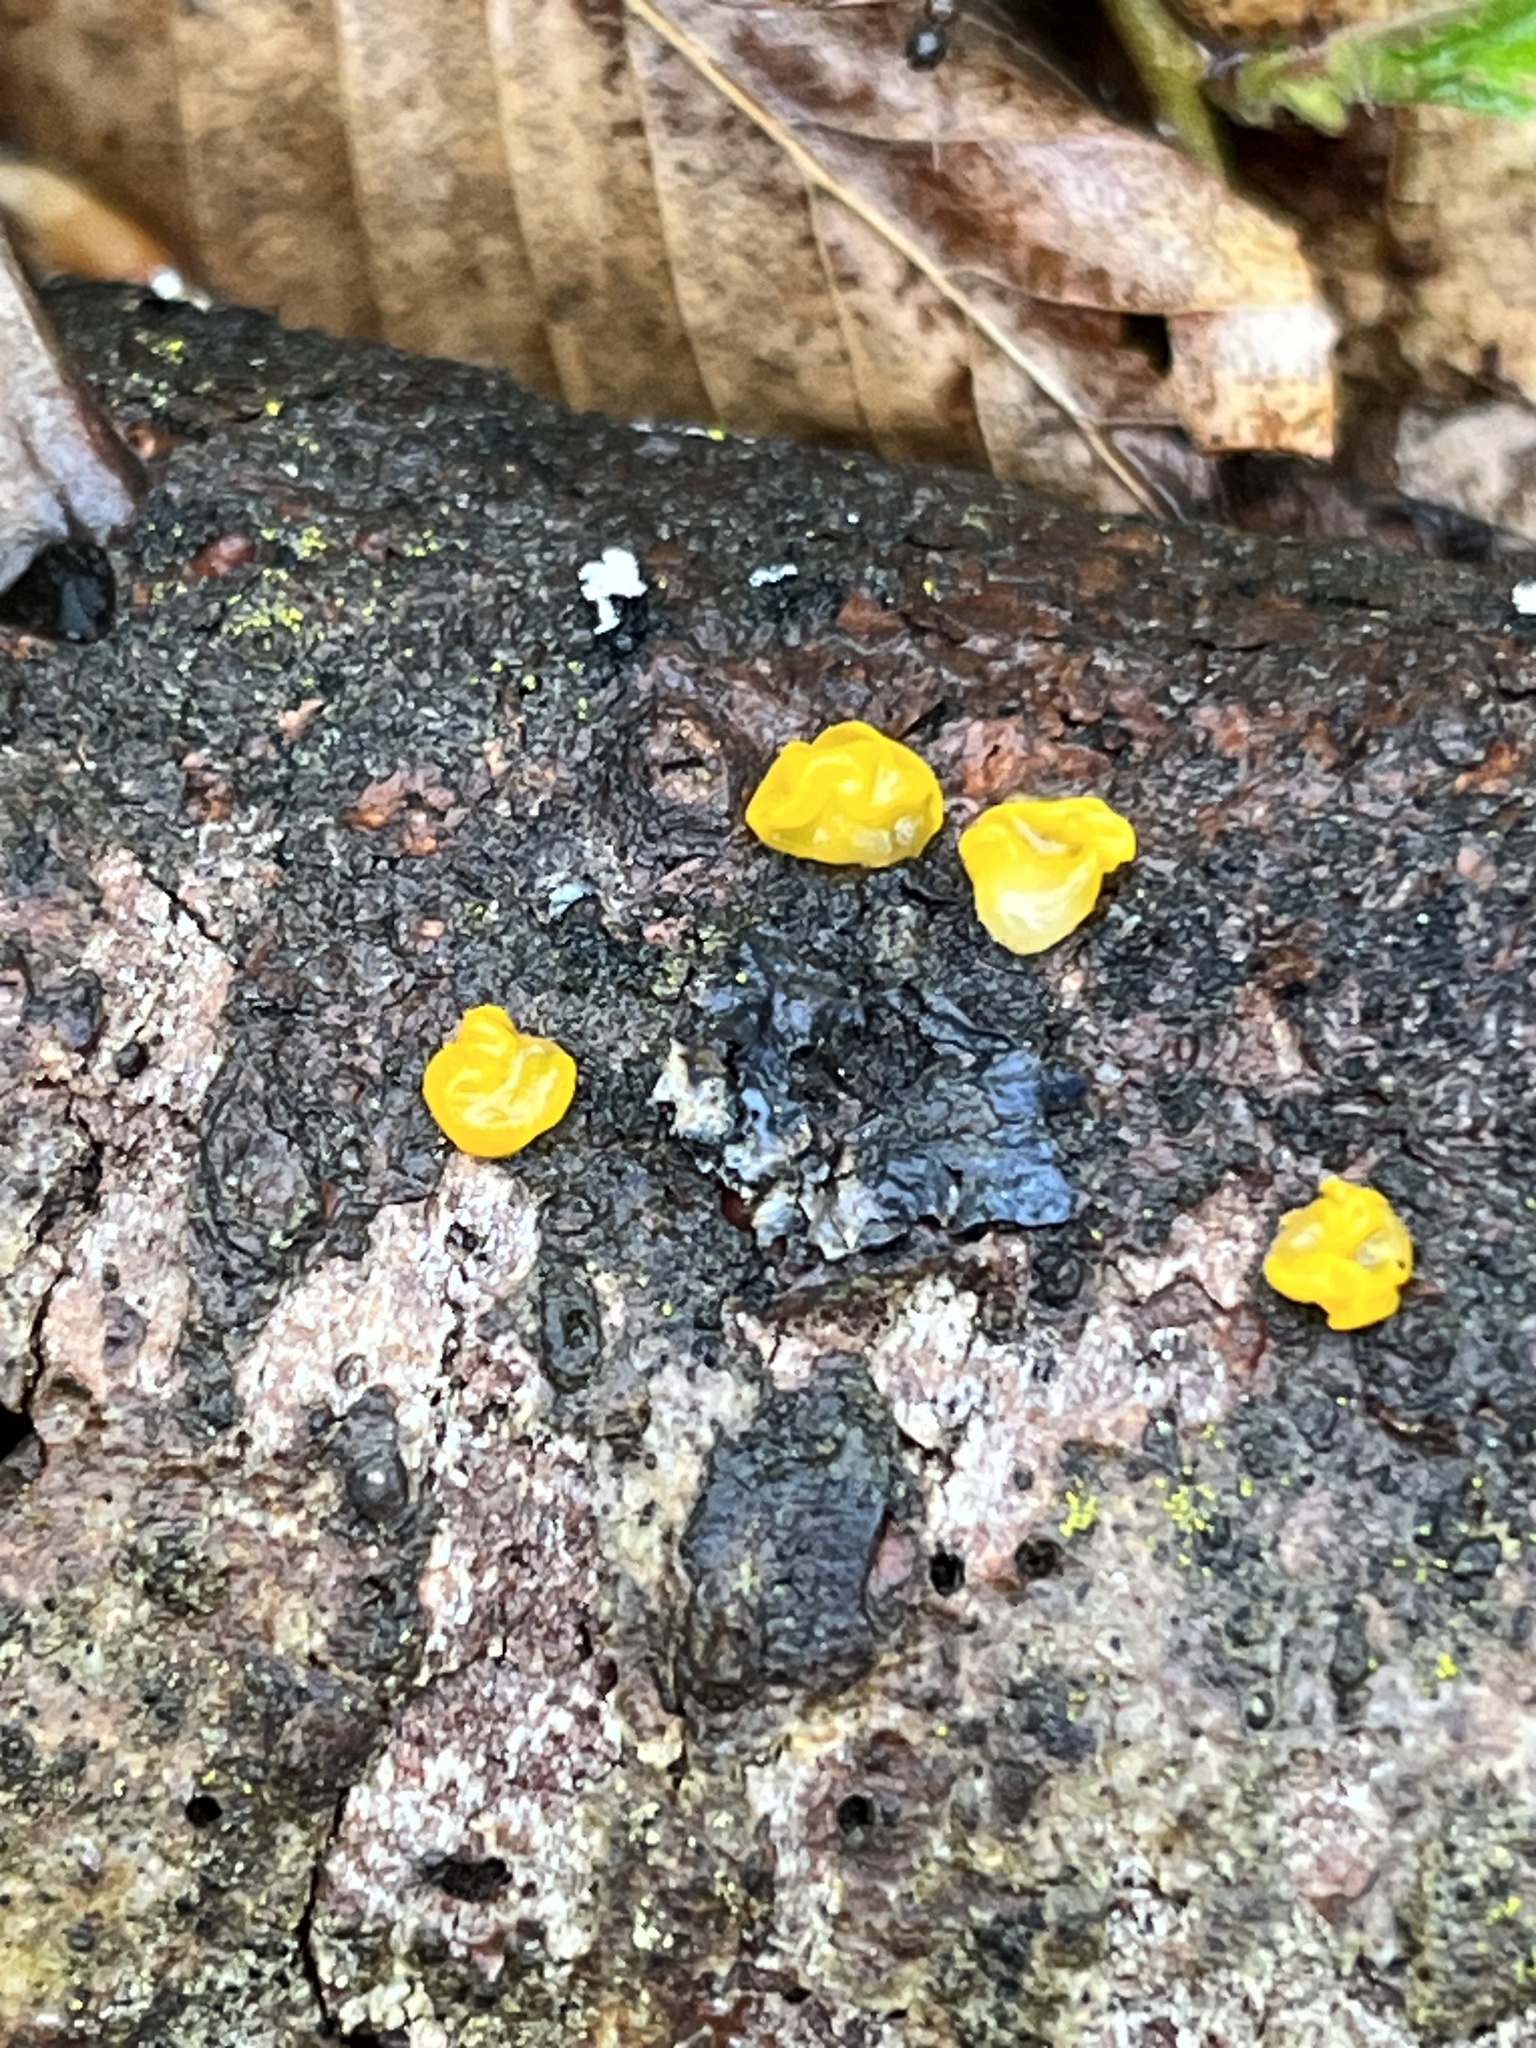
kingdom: Fungi
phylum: Basidiomycota
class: Tremellomycetes
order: Tremellales
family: Tremellaceae
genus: Tremella
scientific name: Tremella mesenterica
